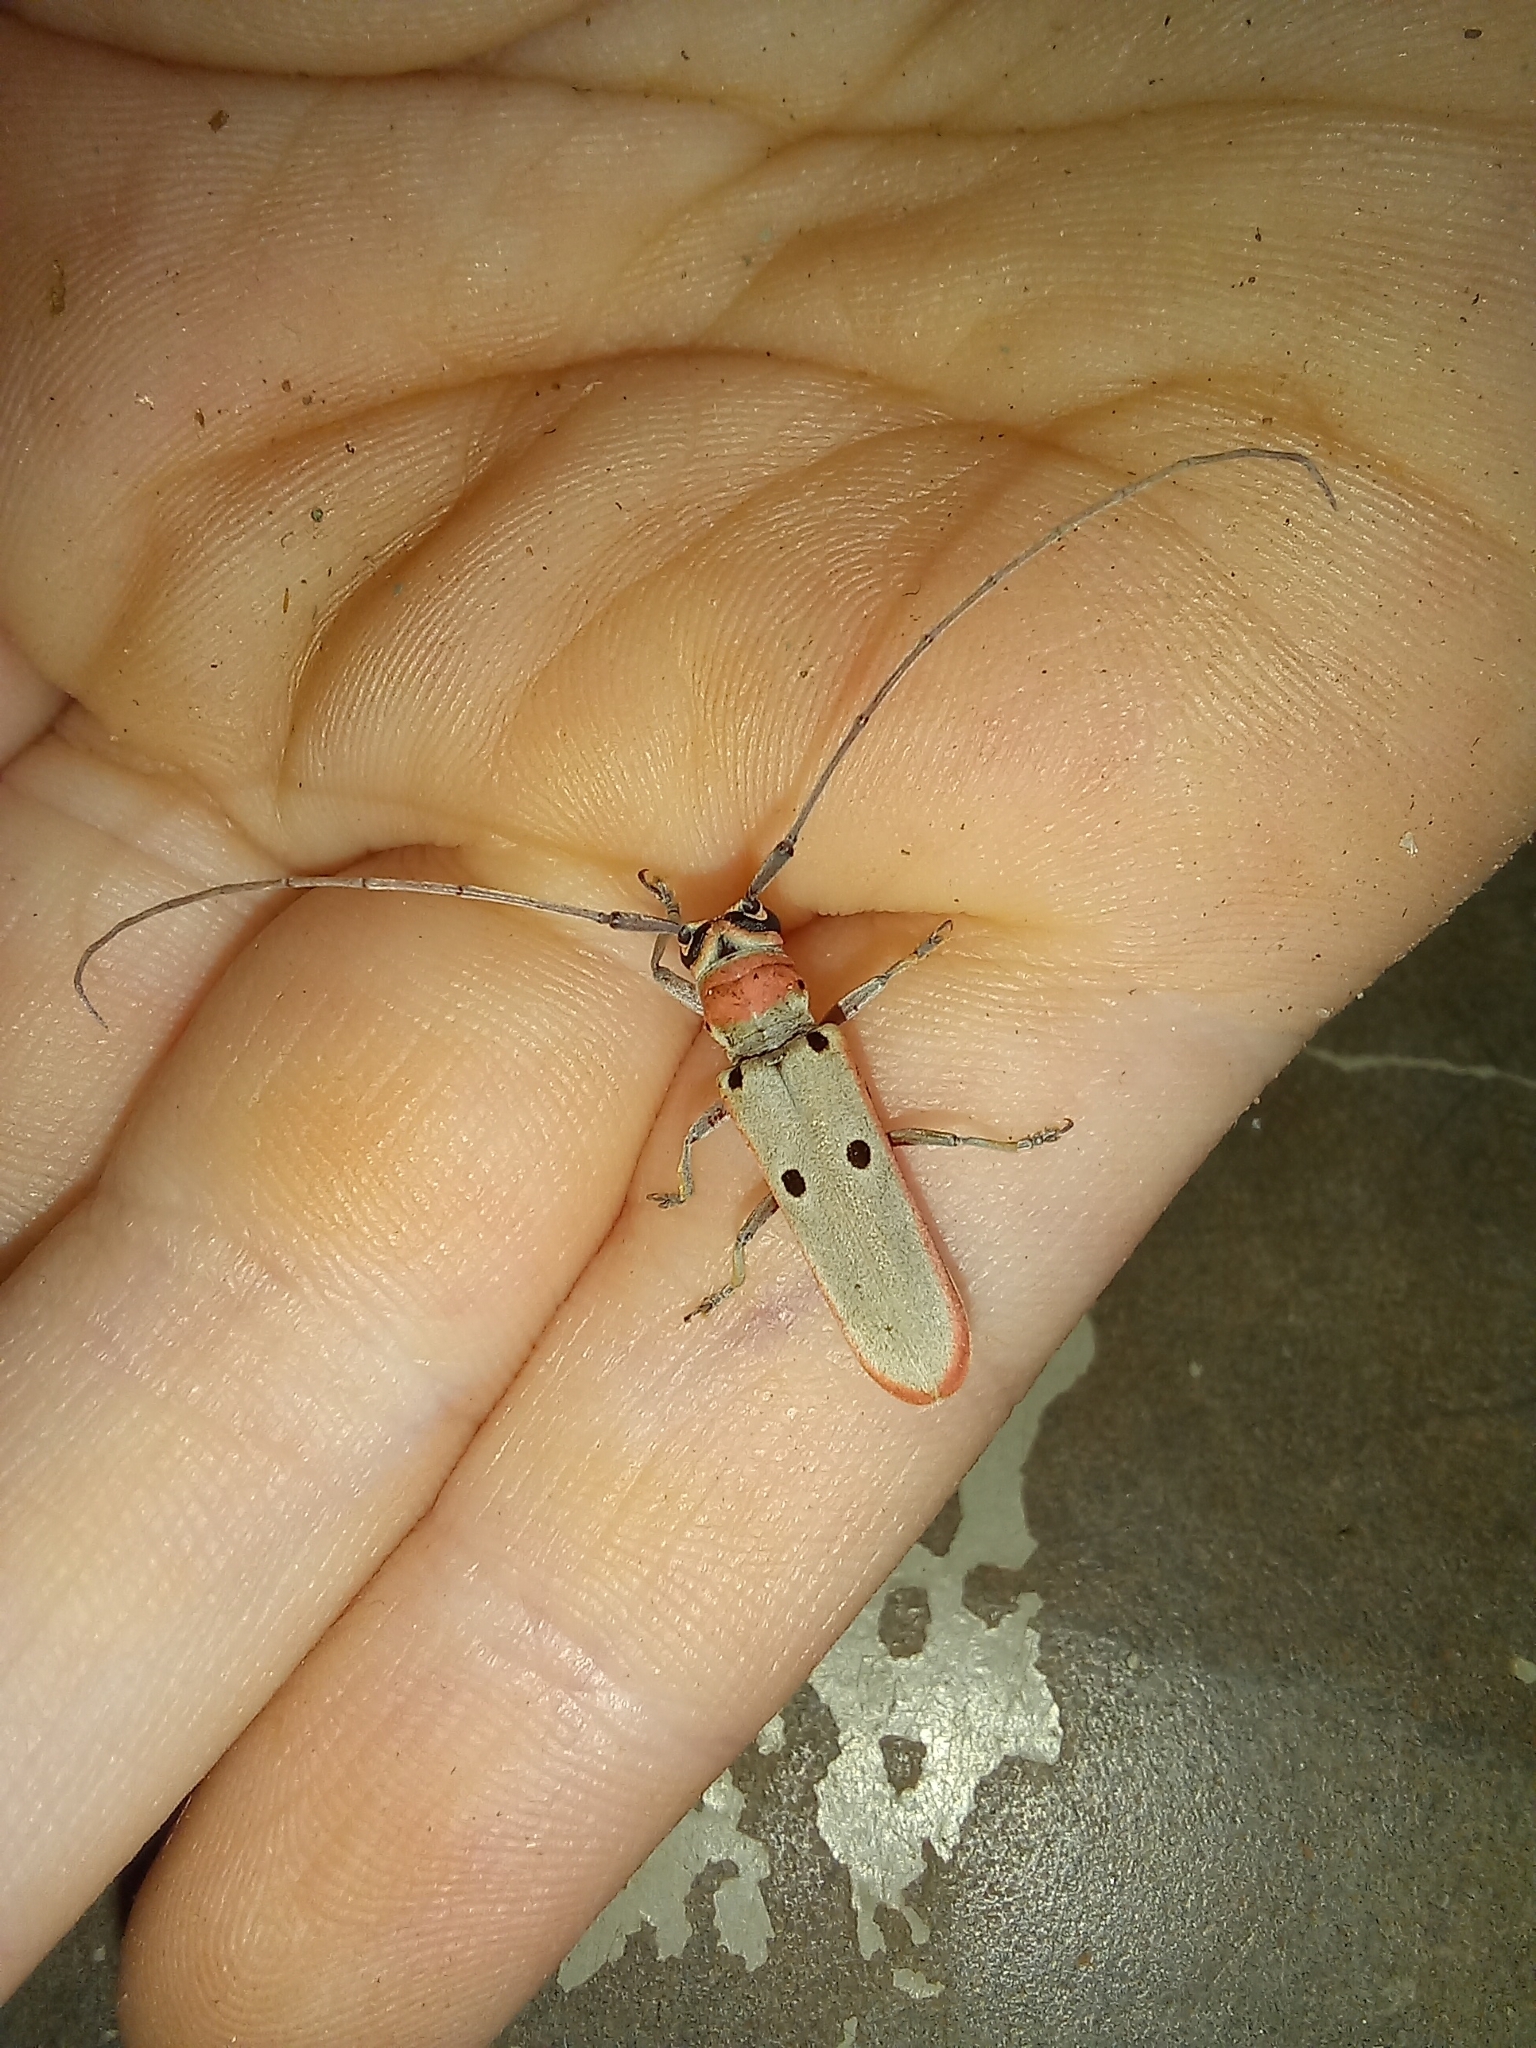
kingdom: Animalia
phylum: Arthropoda
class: Insecta
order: Coleoptera
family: Cerambycidae
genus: Prosopocera
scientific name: Prosopocera octomaculata
